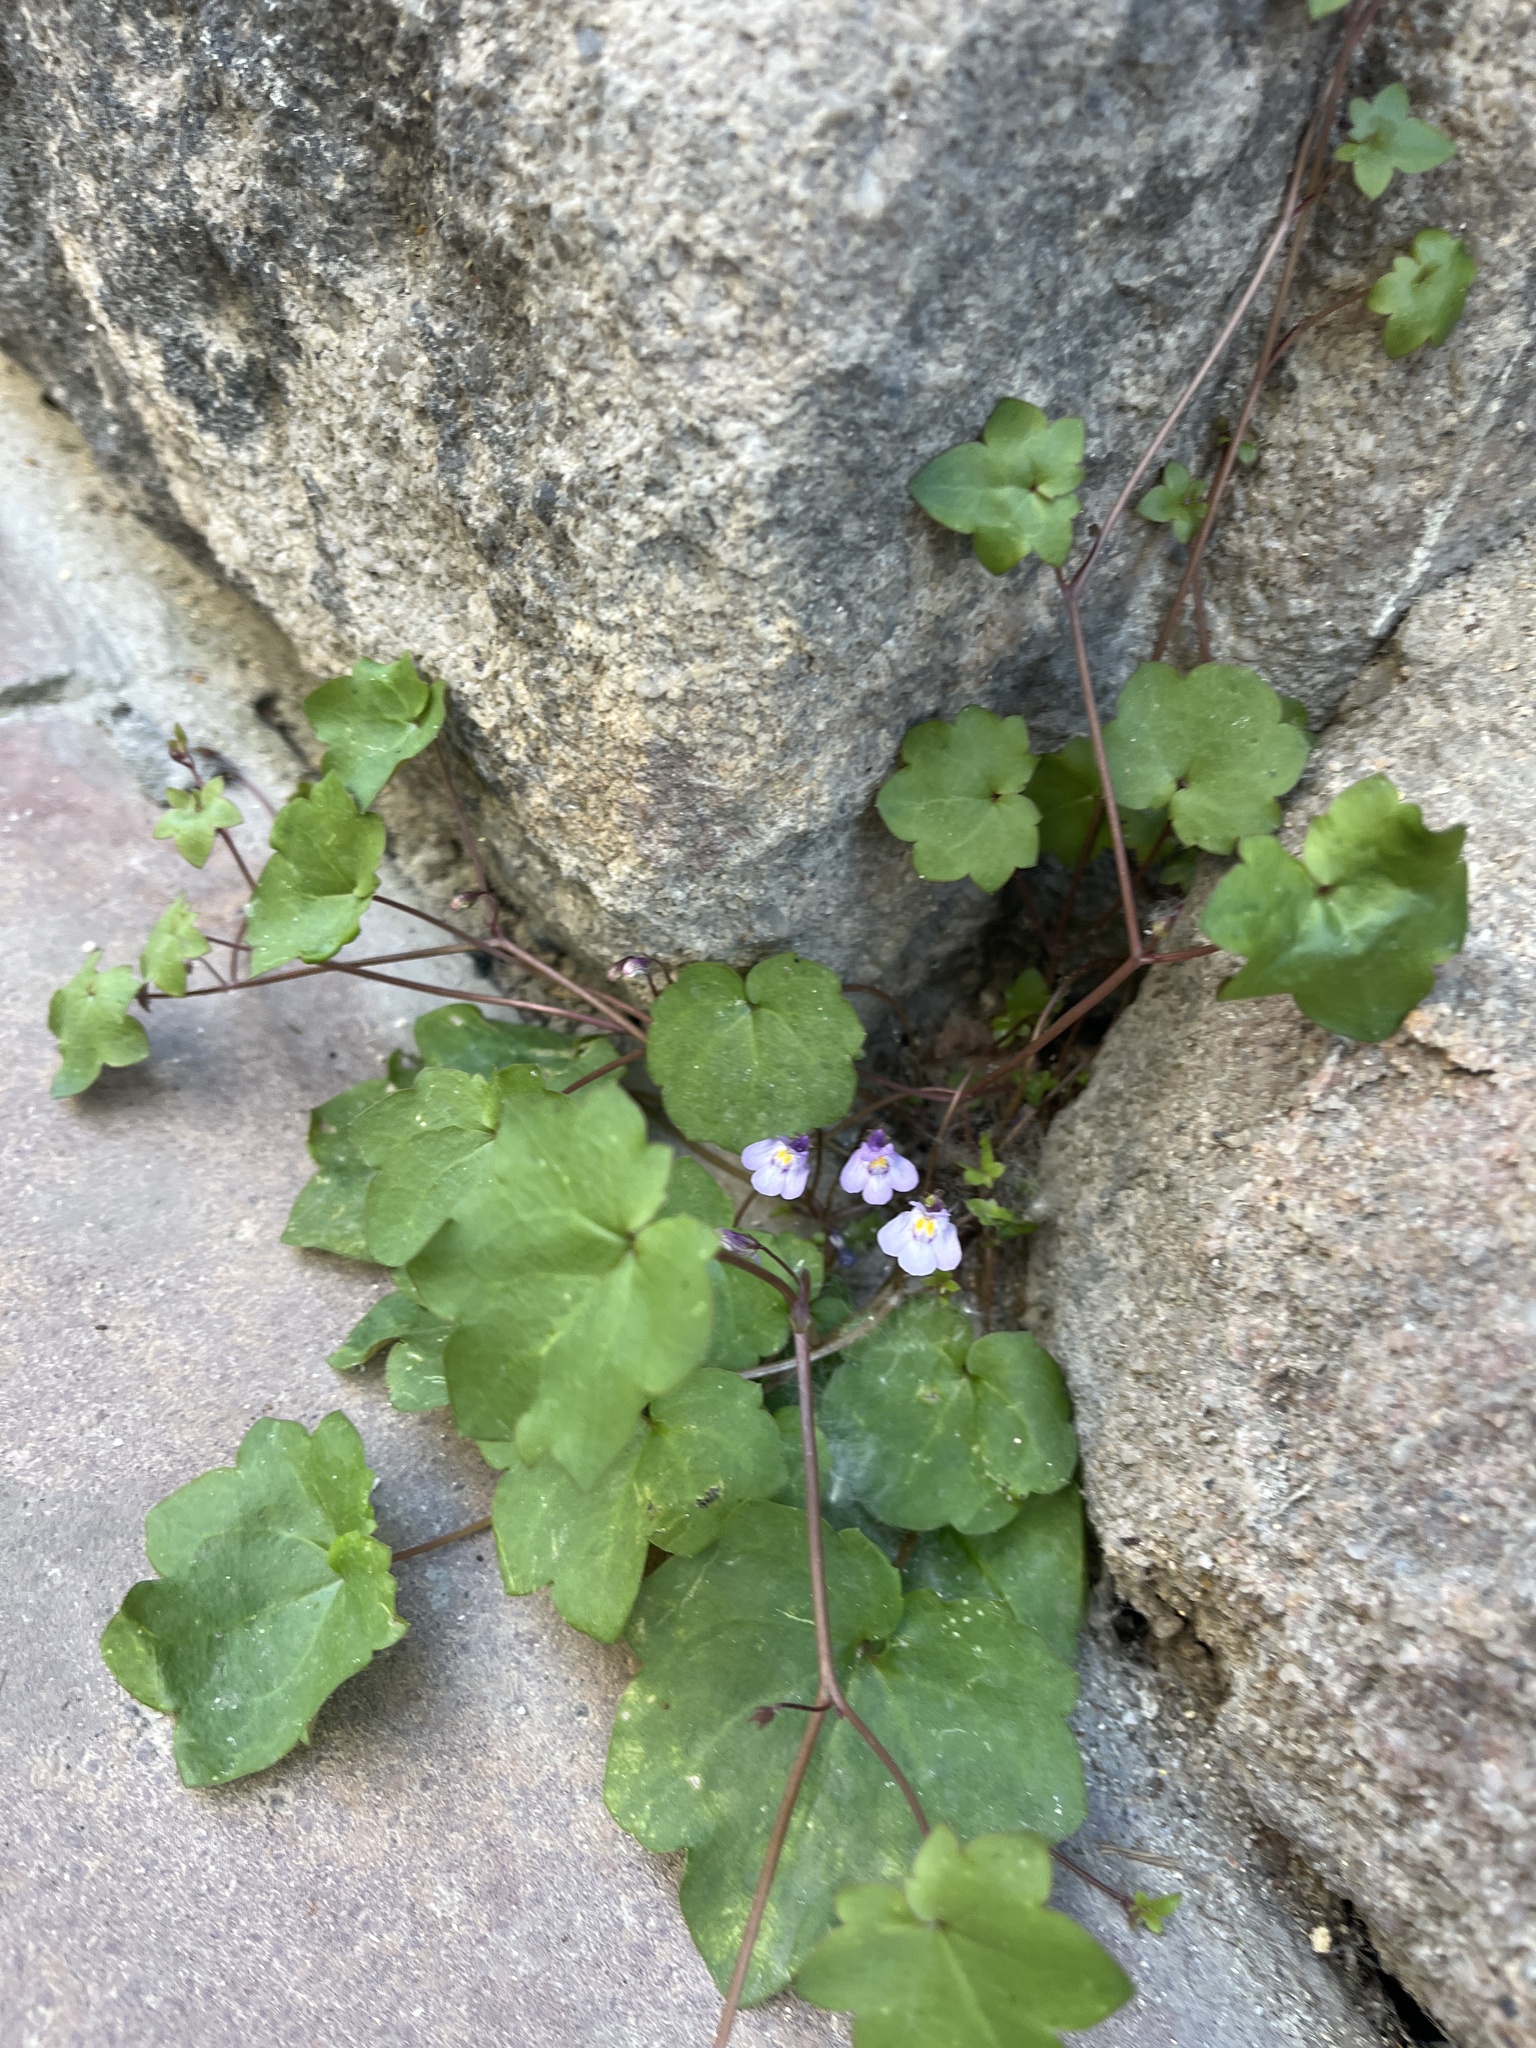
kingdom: Plantae
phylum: Tracheophyta
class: Magnoliopsida
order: Lamiales
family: Plantaginaceae
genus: Cymbalaria
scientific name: Cymbalaria muralis
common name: Ivy-leaved toadflax
